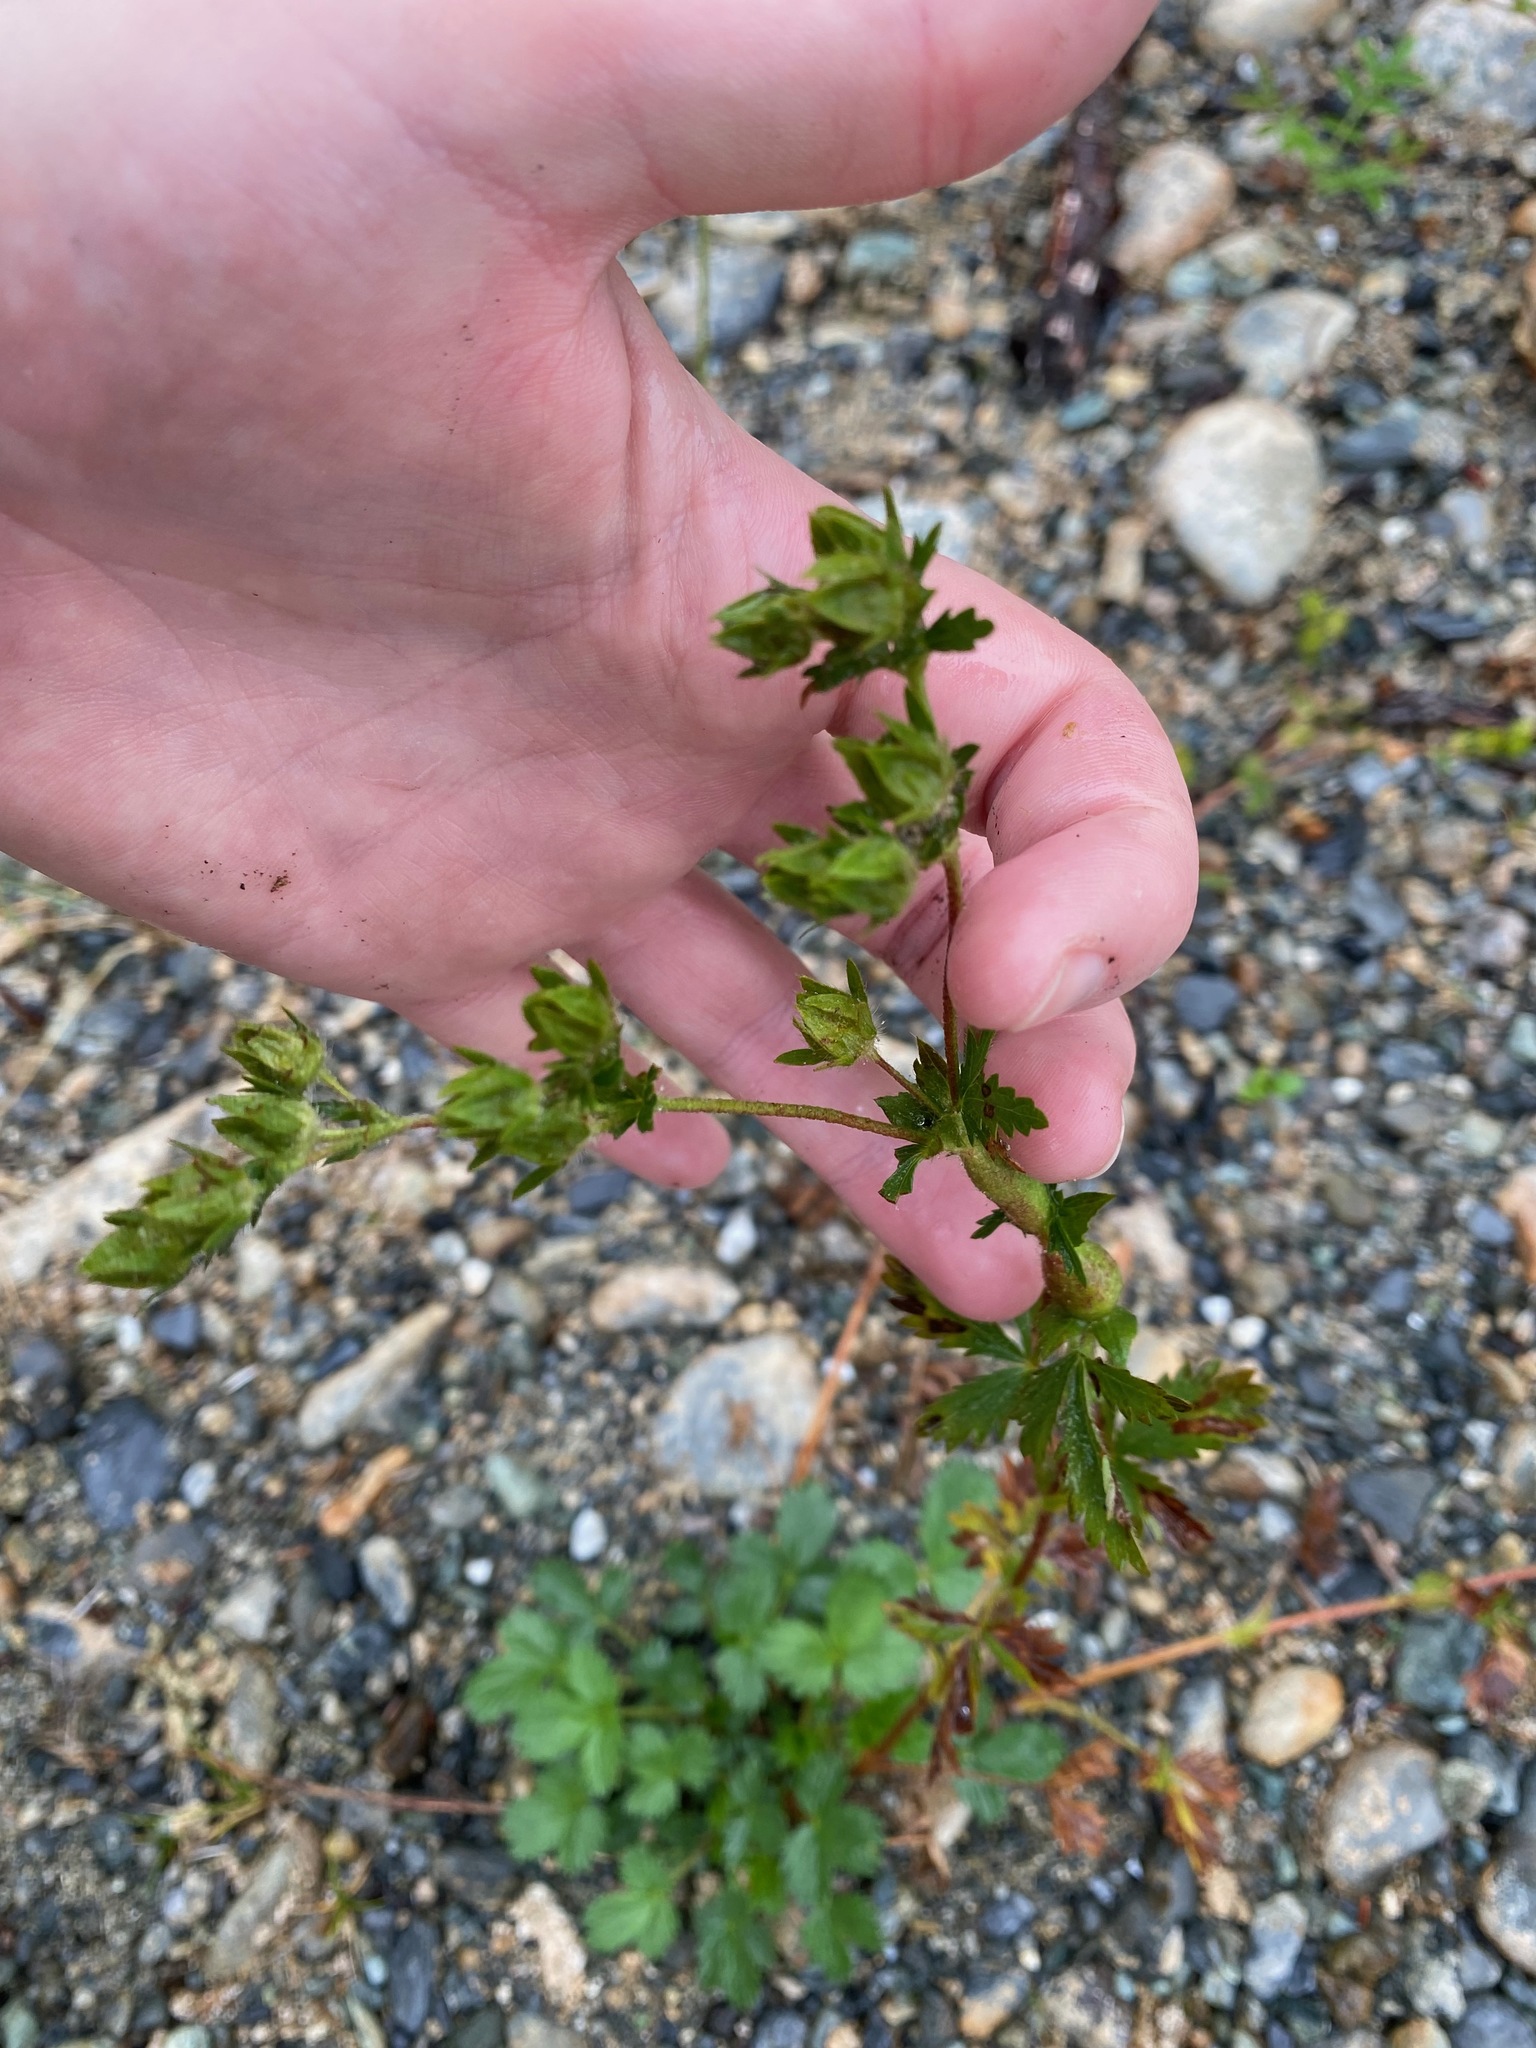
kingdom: Plantae
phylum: Tracheophyta
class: Magnoliopsida
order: Rosales
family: Rosaceae
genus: Potentilla
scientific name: Potentilla norvegica
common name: Ternate-leaved cinquefoil
